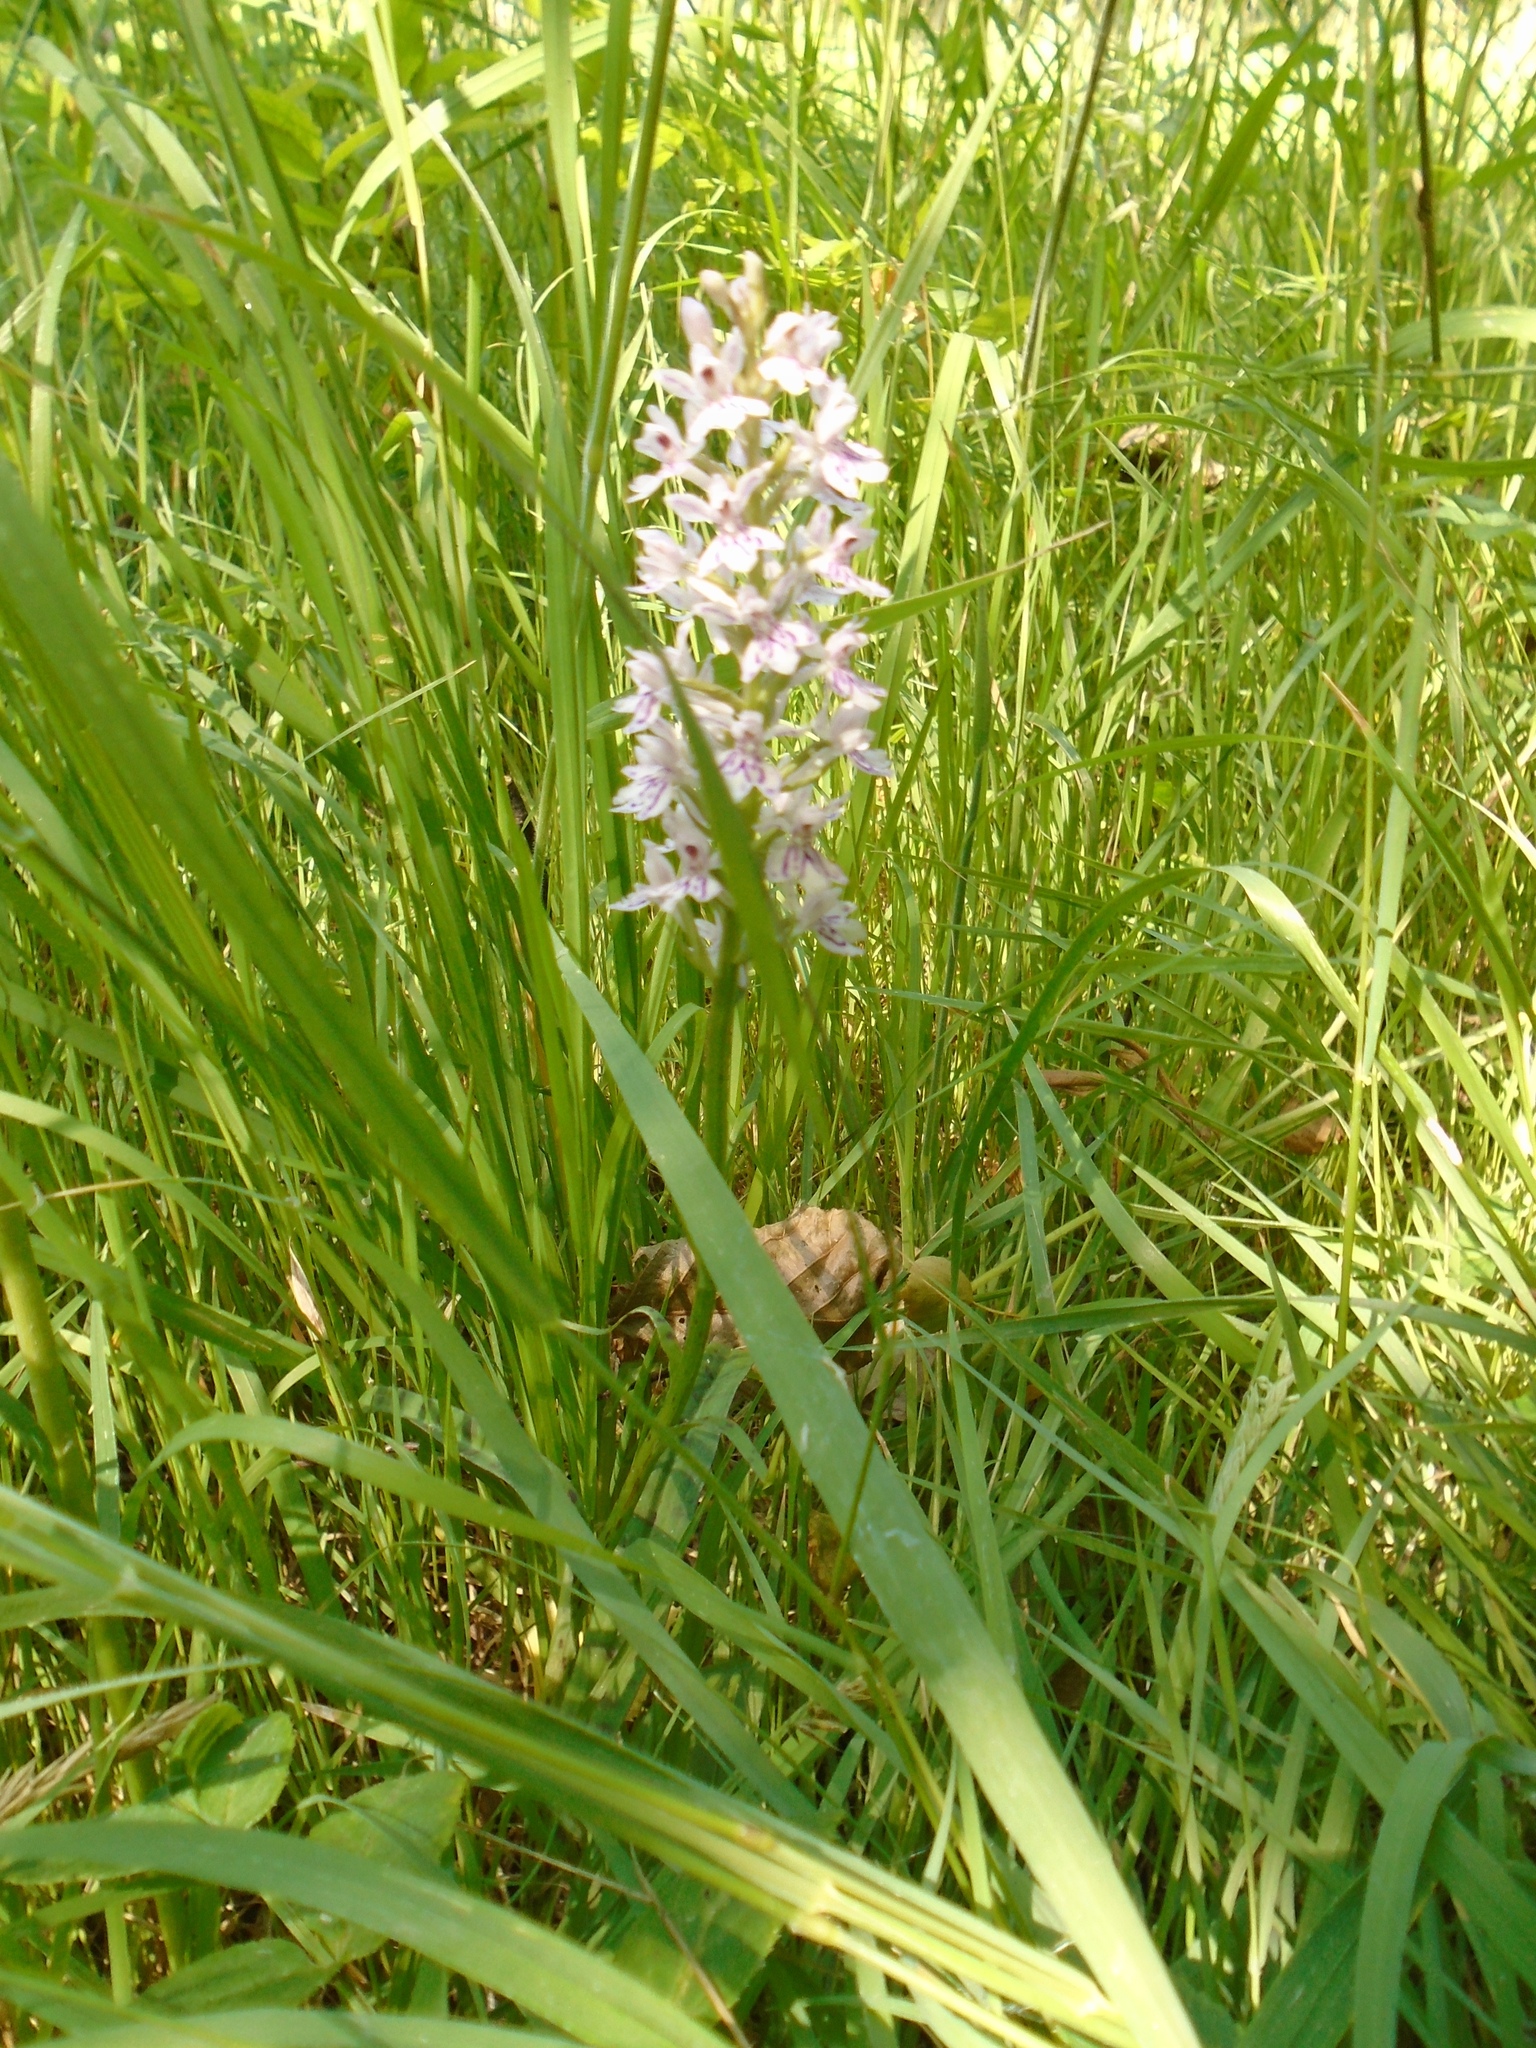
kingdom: Plantae
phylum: Tracheophyta
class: Liliopsida
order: Asparagales
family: Orchidaceae
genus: Dactylorhiza
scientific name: Dactylorhiza maculata
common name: Heath spotted-orchid
